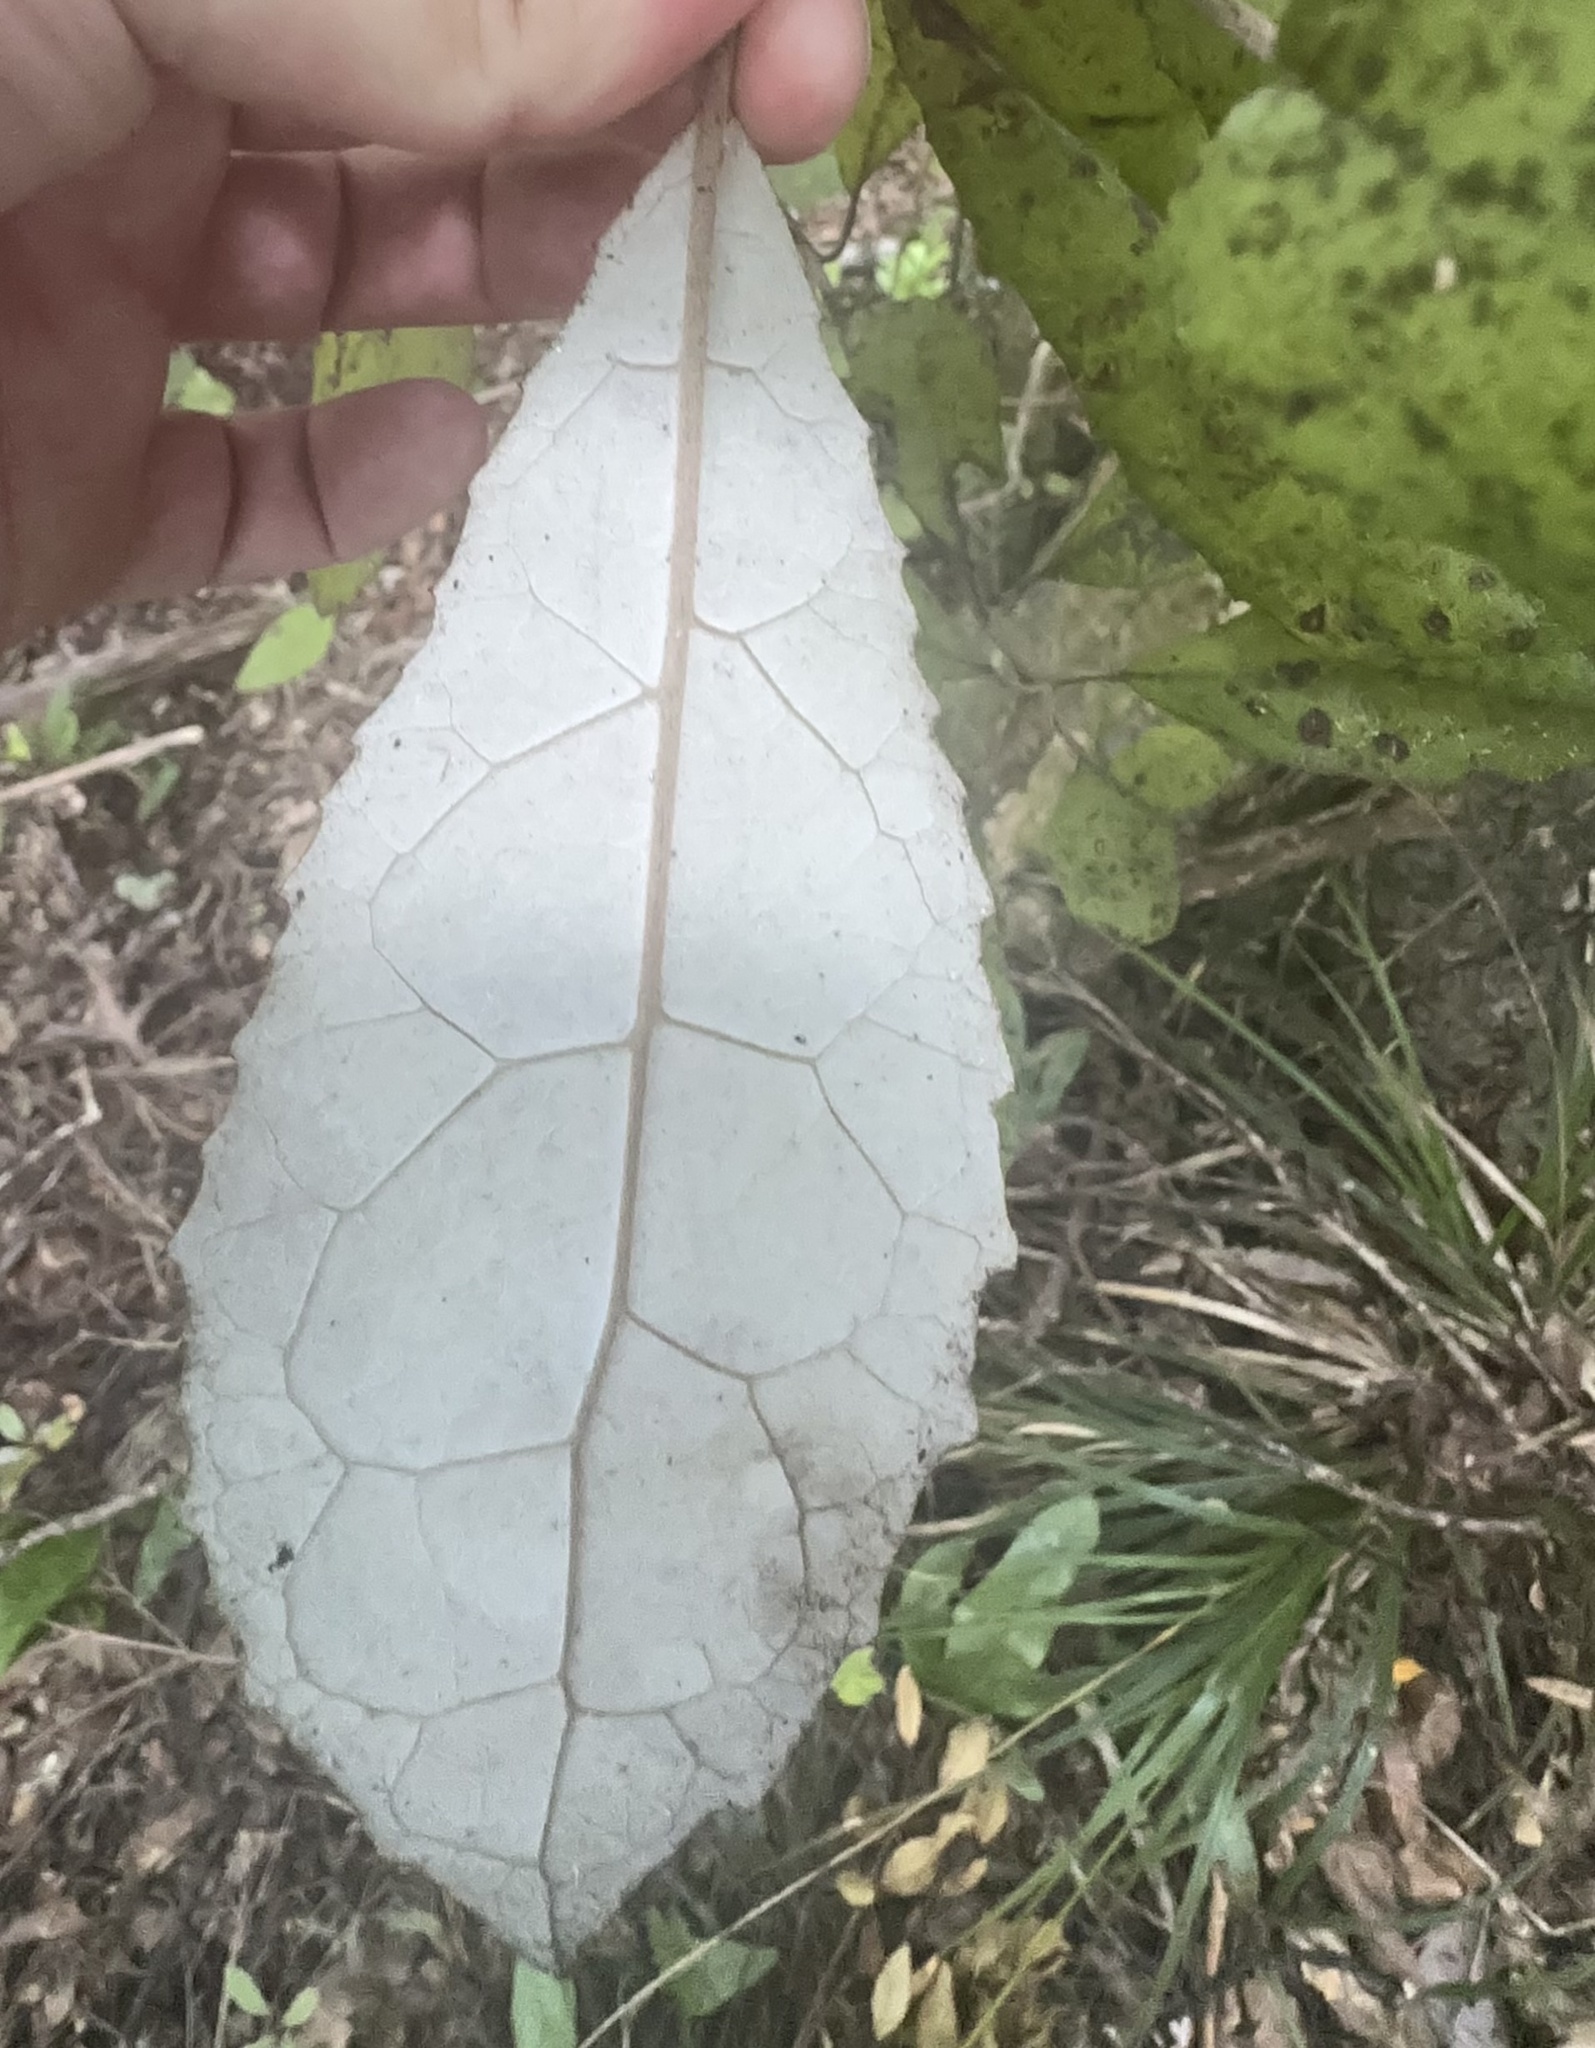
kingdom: Plantae
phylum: Tracheophyta
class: Magnoliopsida
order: Asterales
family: Asteraceae
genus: Olearia
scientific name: Olearia rani
